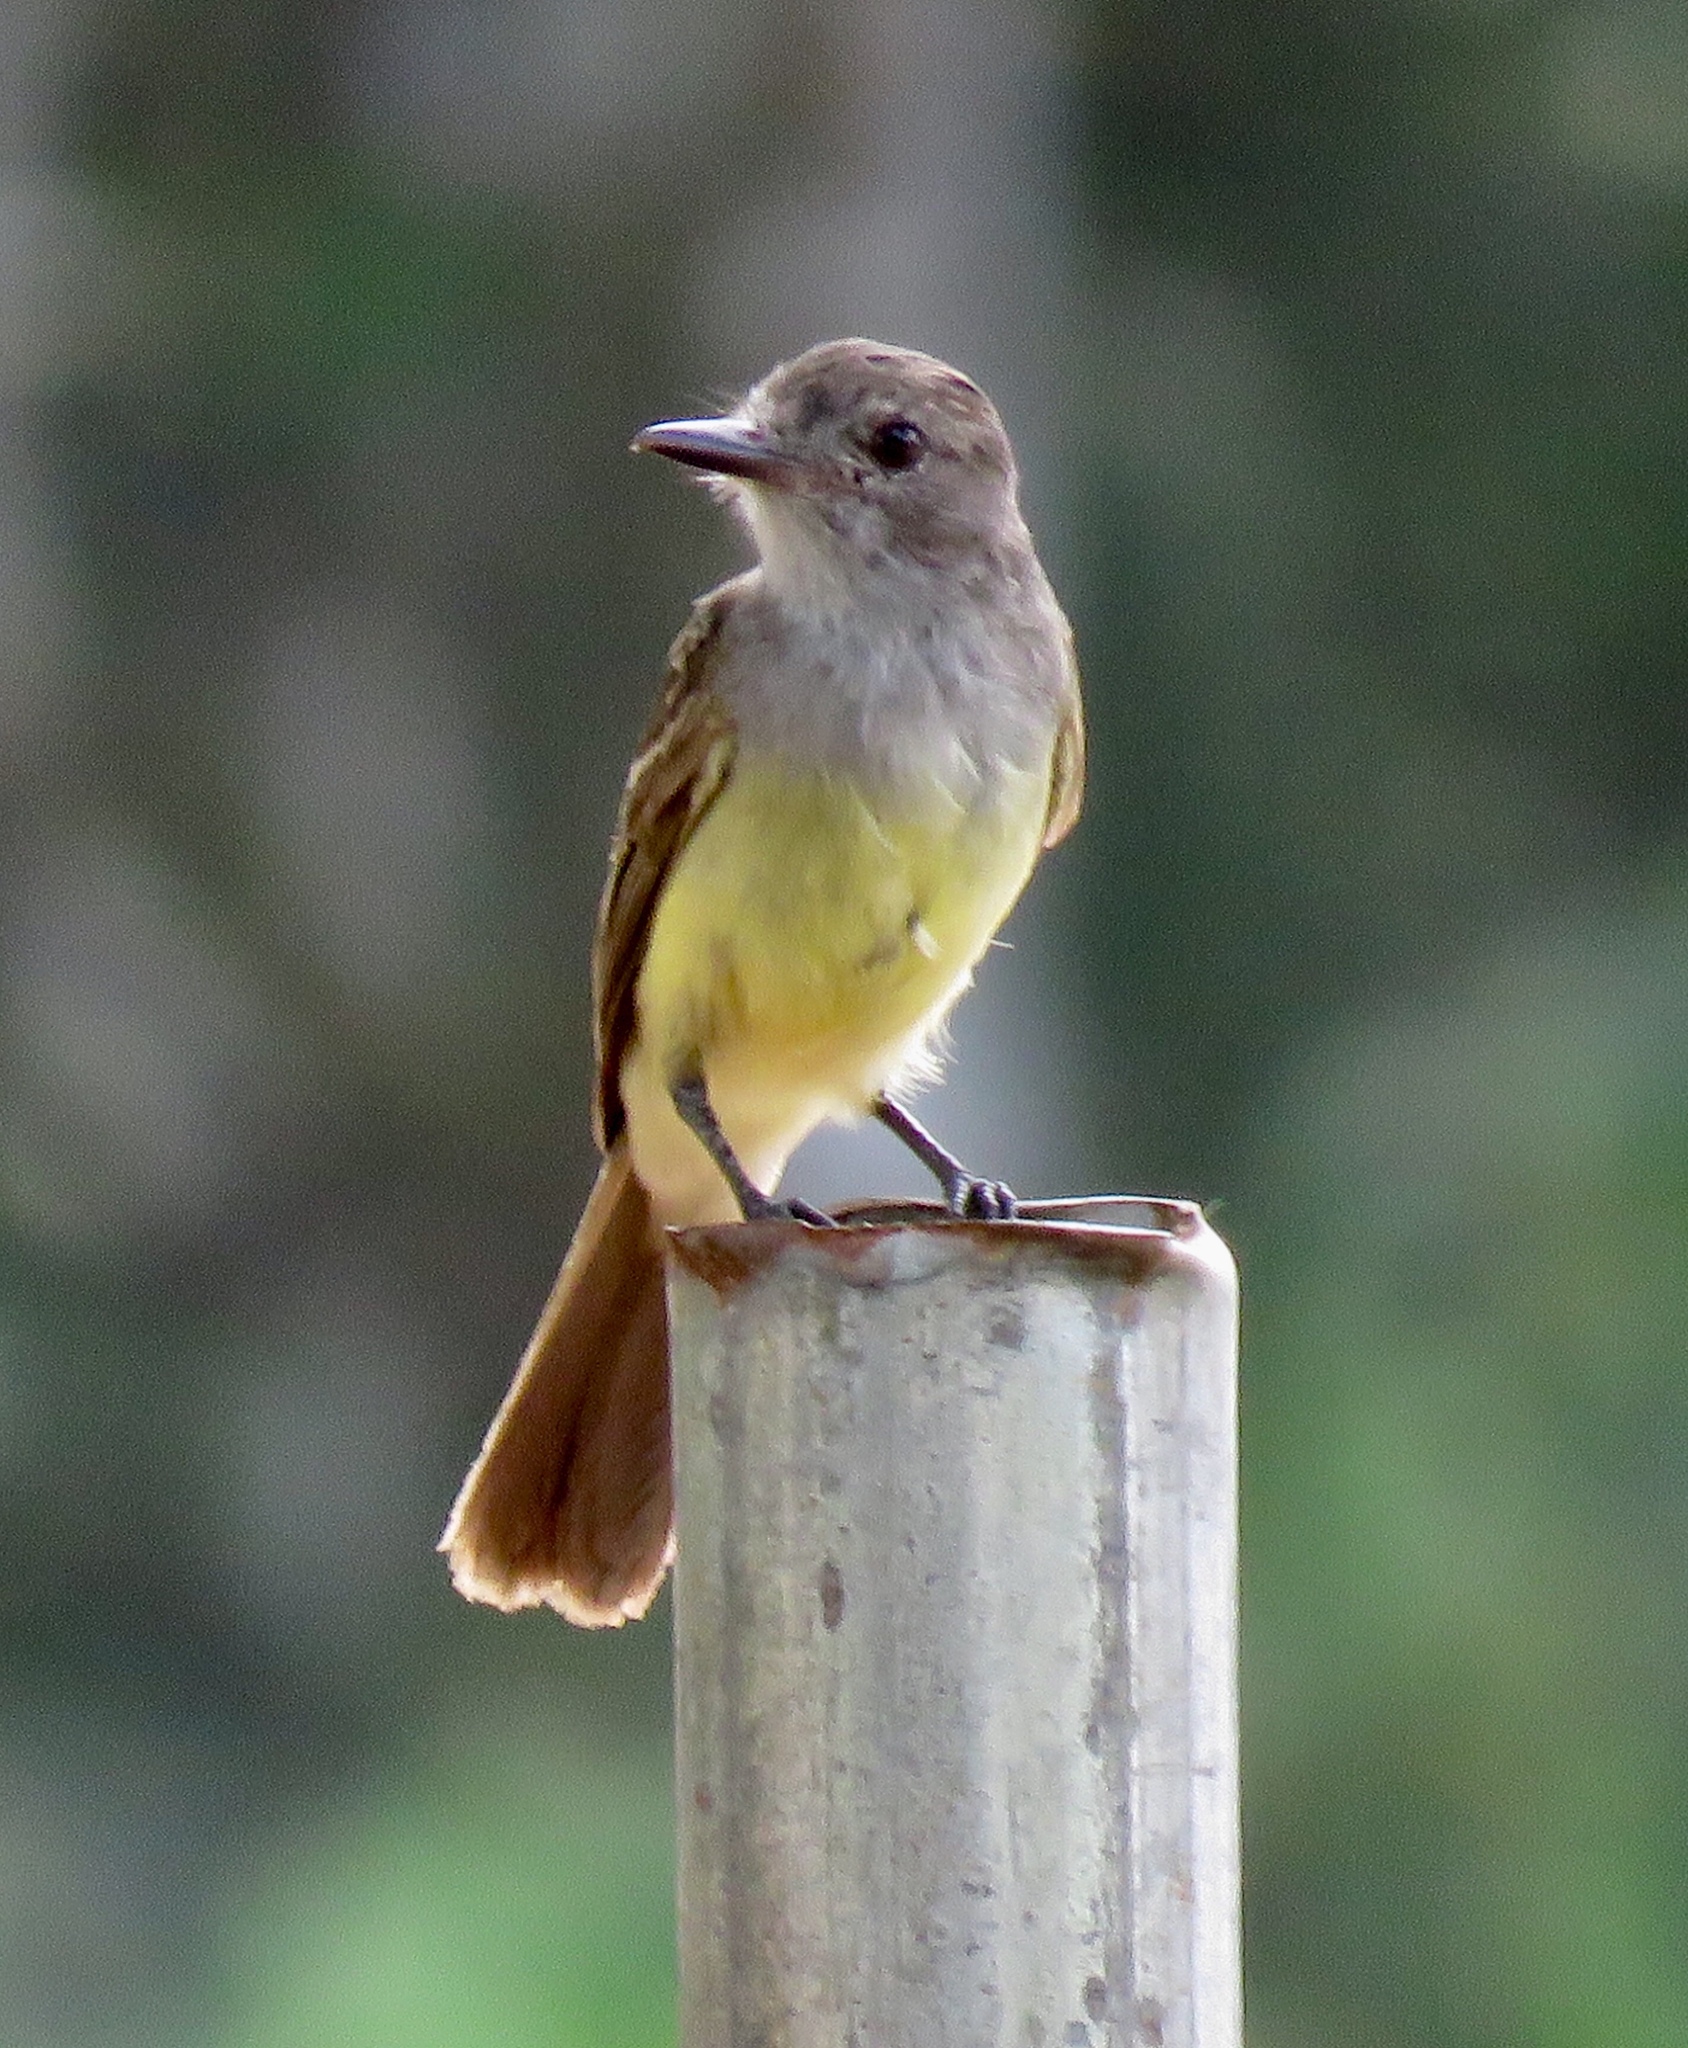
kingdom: Animalia
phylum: Chordata
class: Aves
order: Passeriformes
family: Tyrannidae
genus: Myiarchus
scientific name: Myiarchus panamensis
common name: Panama flycatcher
